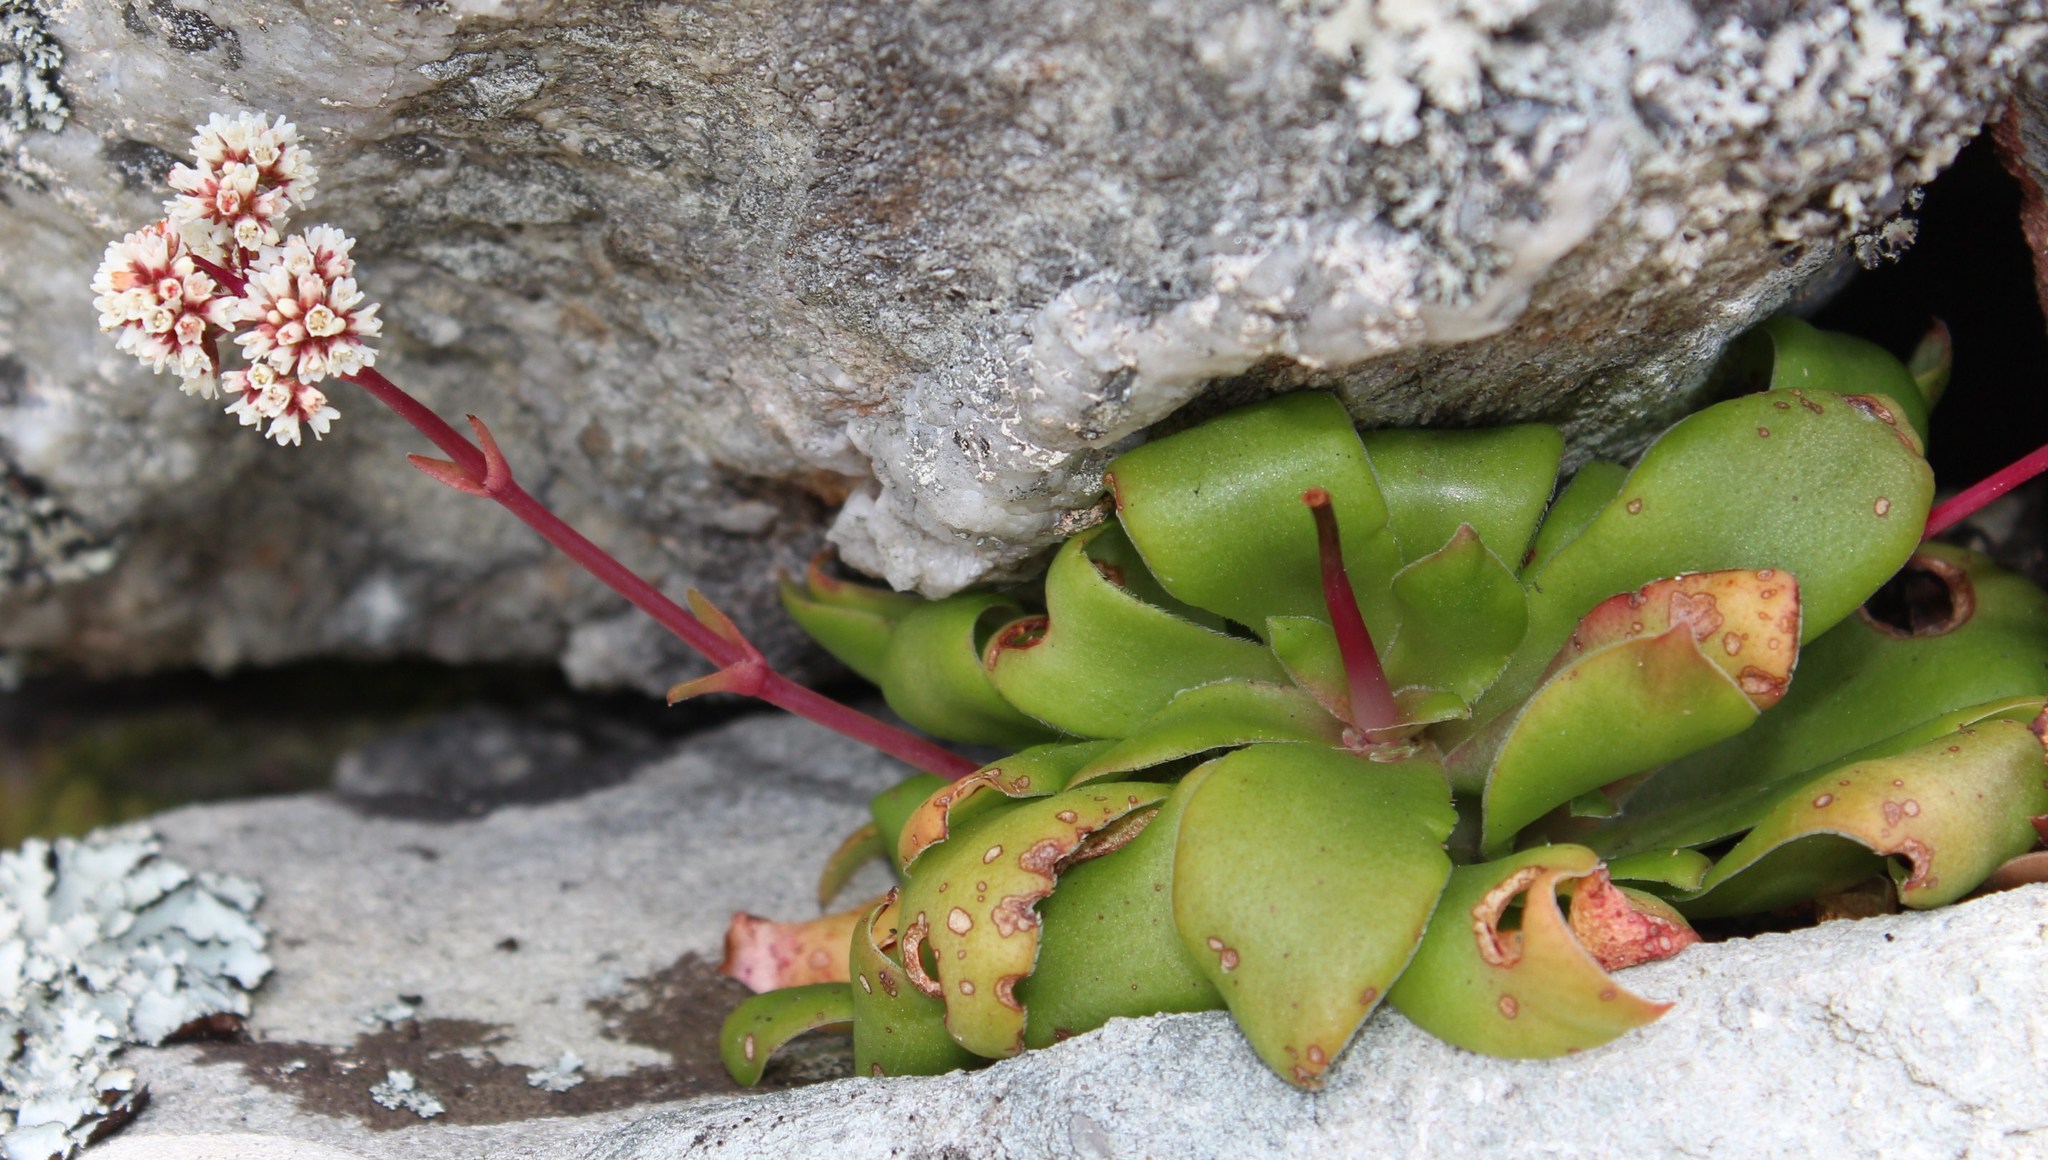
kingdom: Plantae
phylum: Tracheophyta
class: Magnoliopsida
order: Saxifragales
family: Crassulaceae
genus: Crassula
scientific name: Crassula orbicularis
